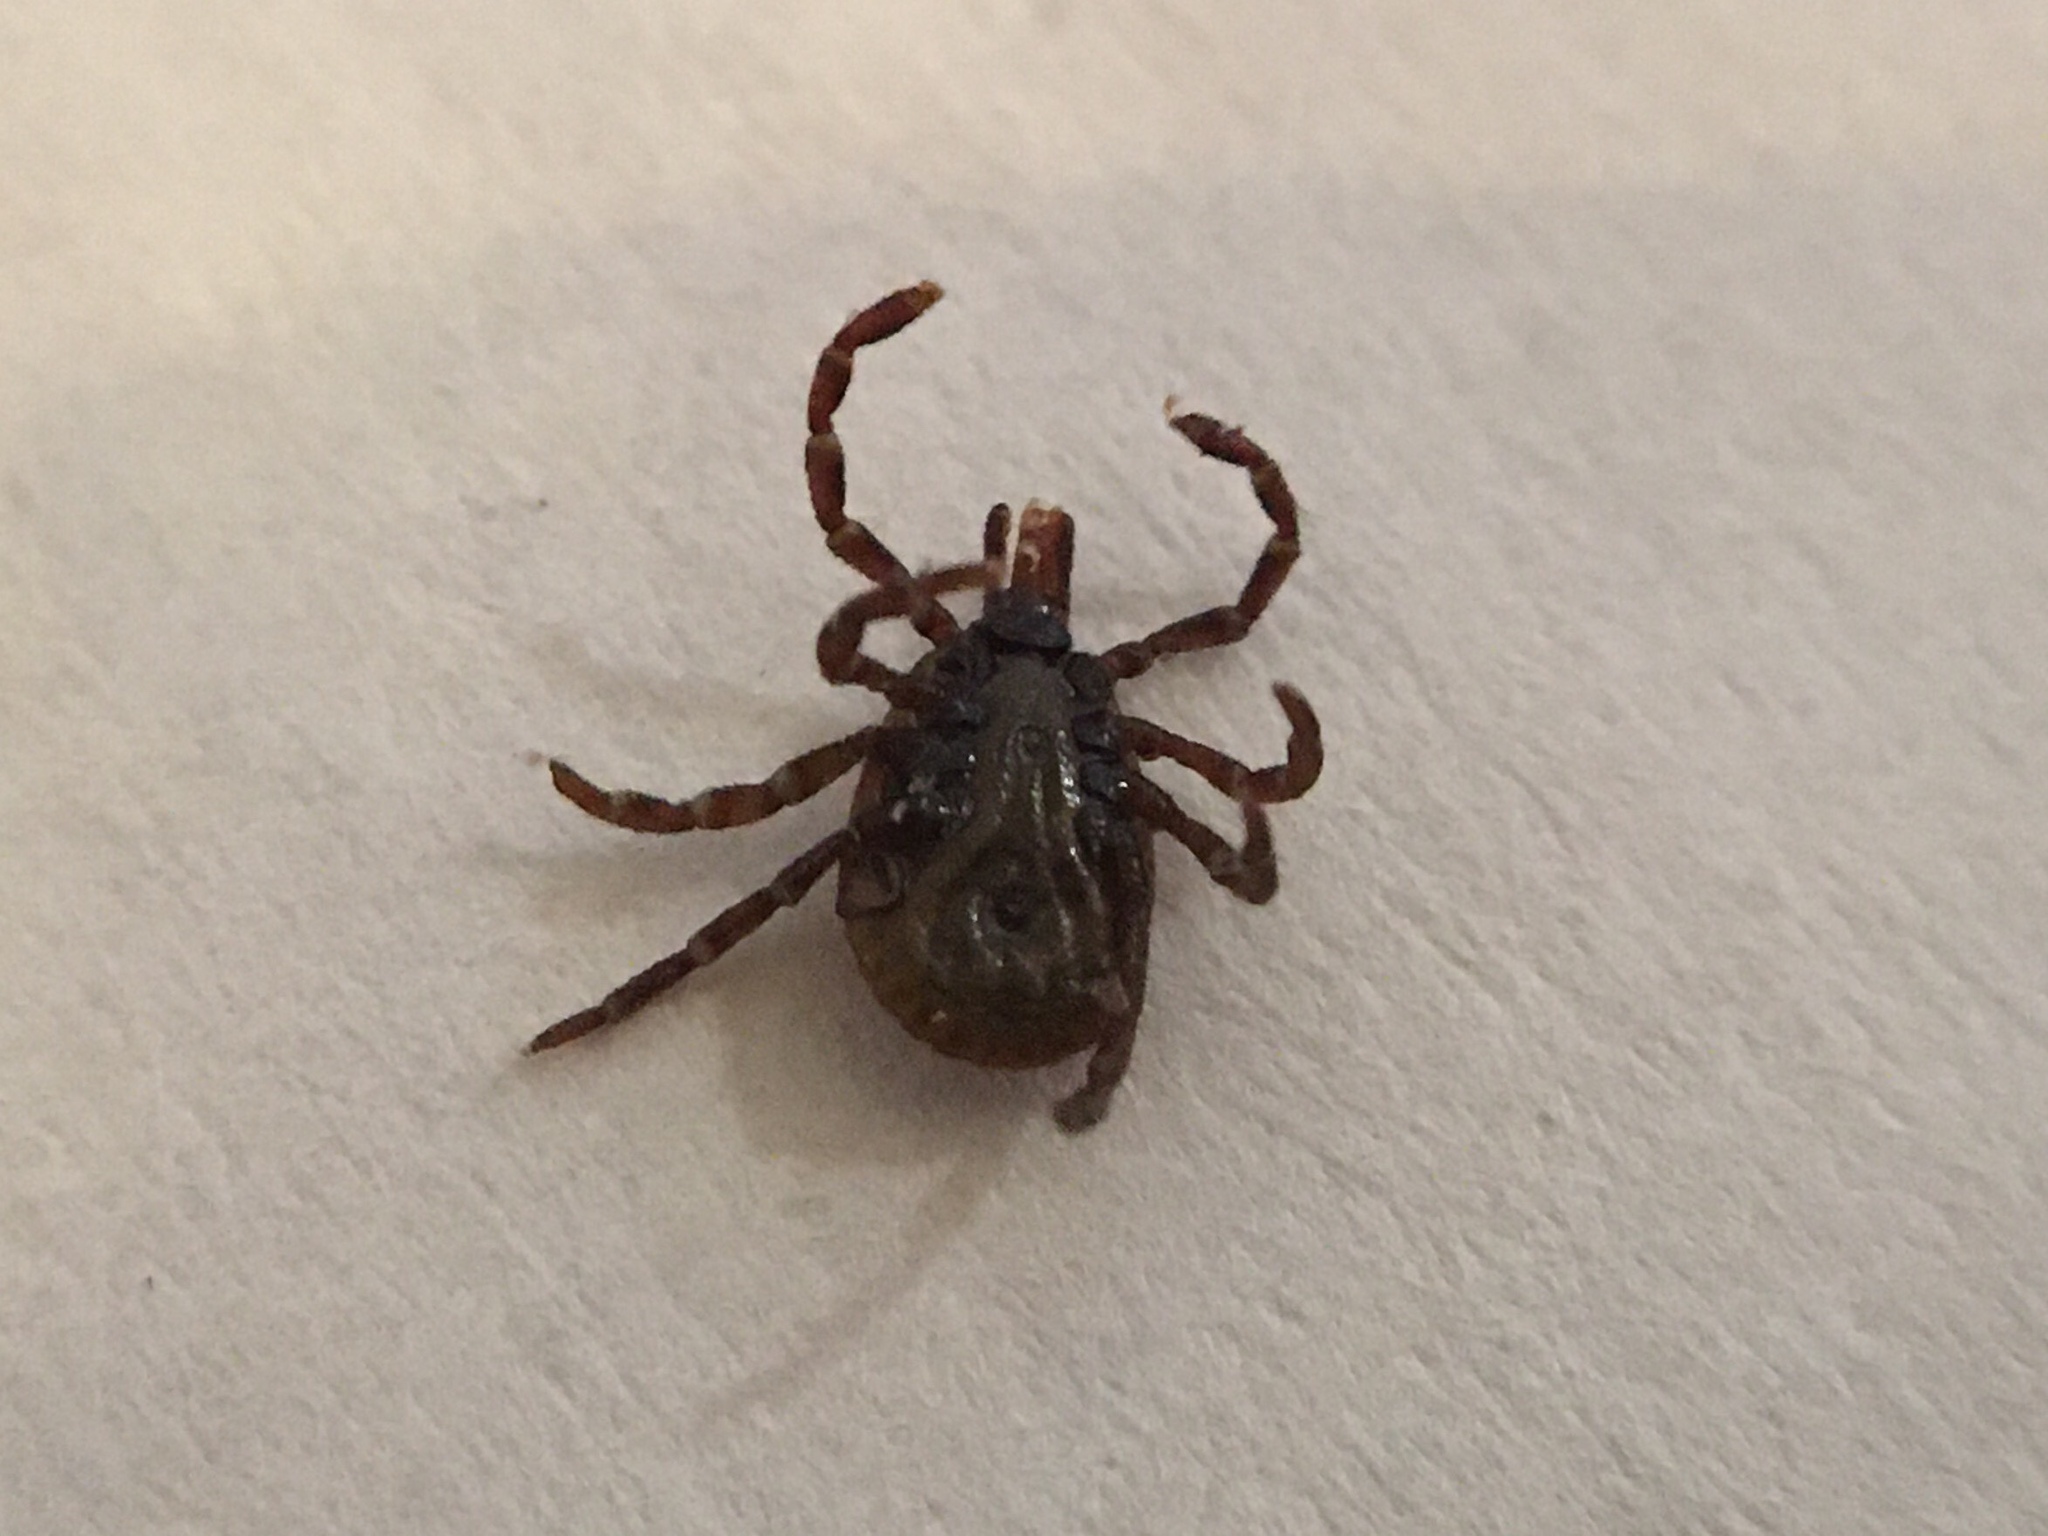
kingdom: Animalia
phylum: Arthropoda
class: Arachnida
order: Ixodida
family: Ixodidae
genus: Amblyomma
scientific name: Amblyomma ovale
